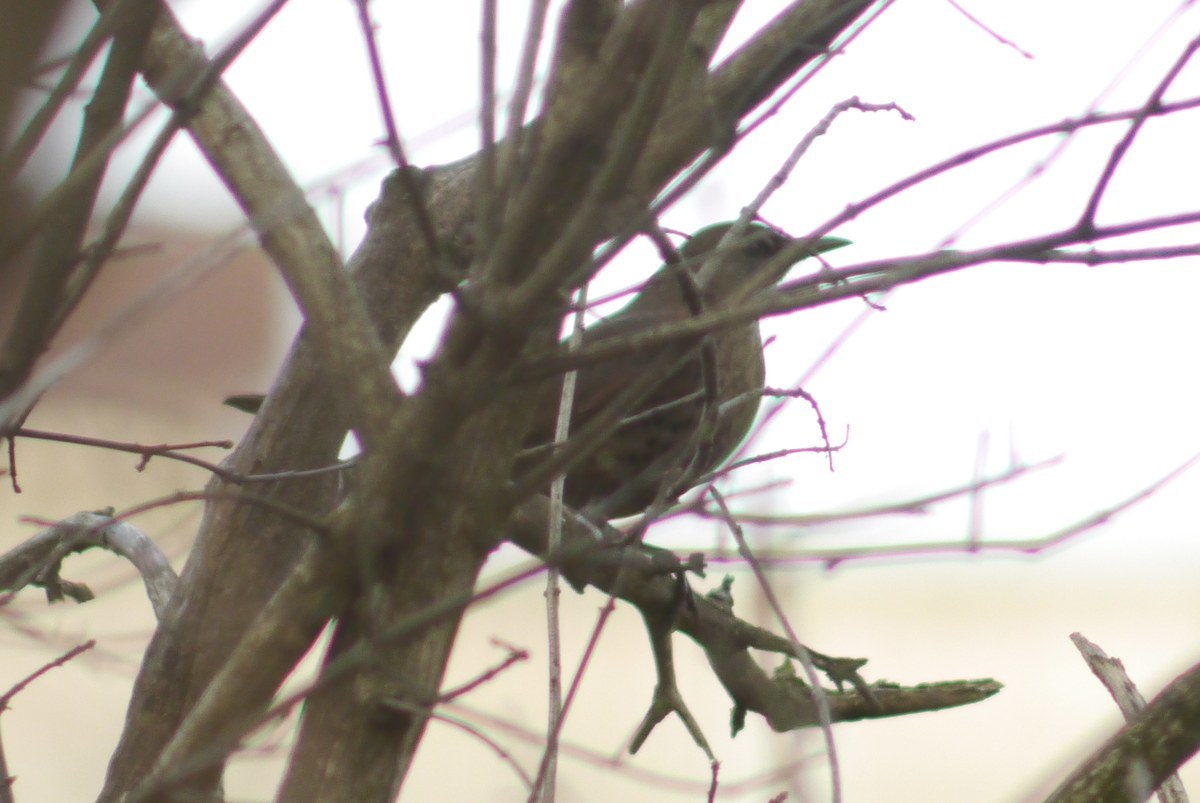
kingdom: Animalia
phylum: Chordata
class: Aves
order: Passeriformes
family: Turdidae
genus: Turdus
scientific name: Turdus merula
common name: Common blackbird
